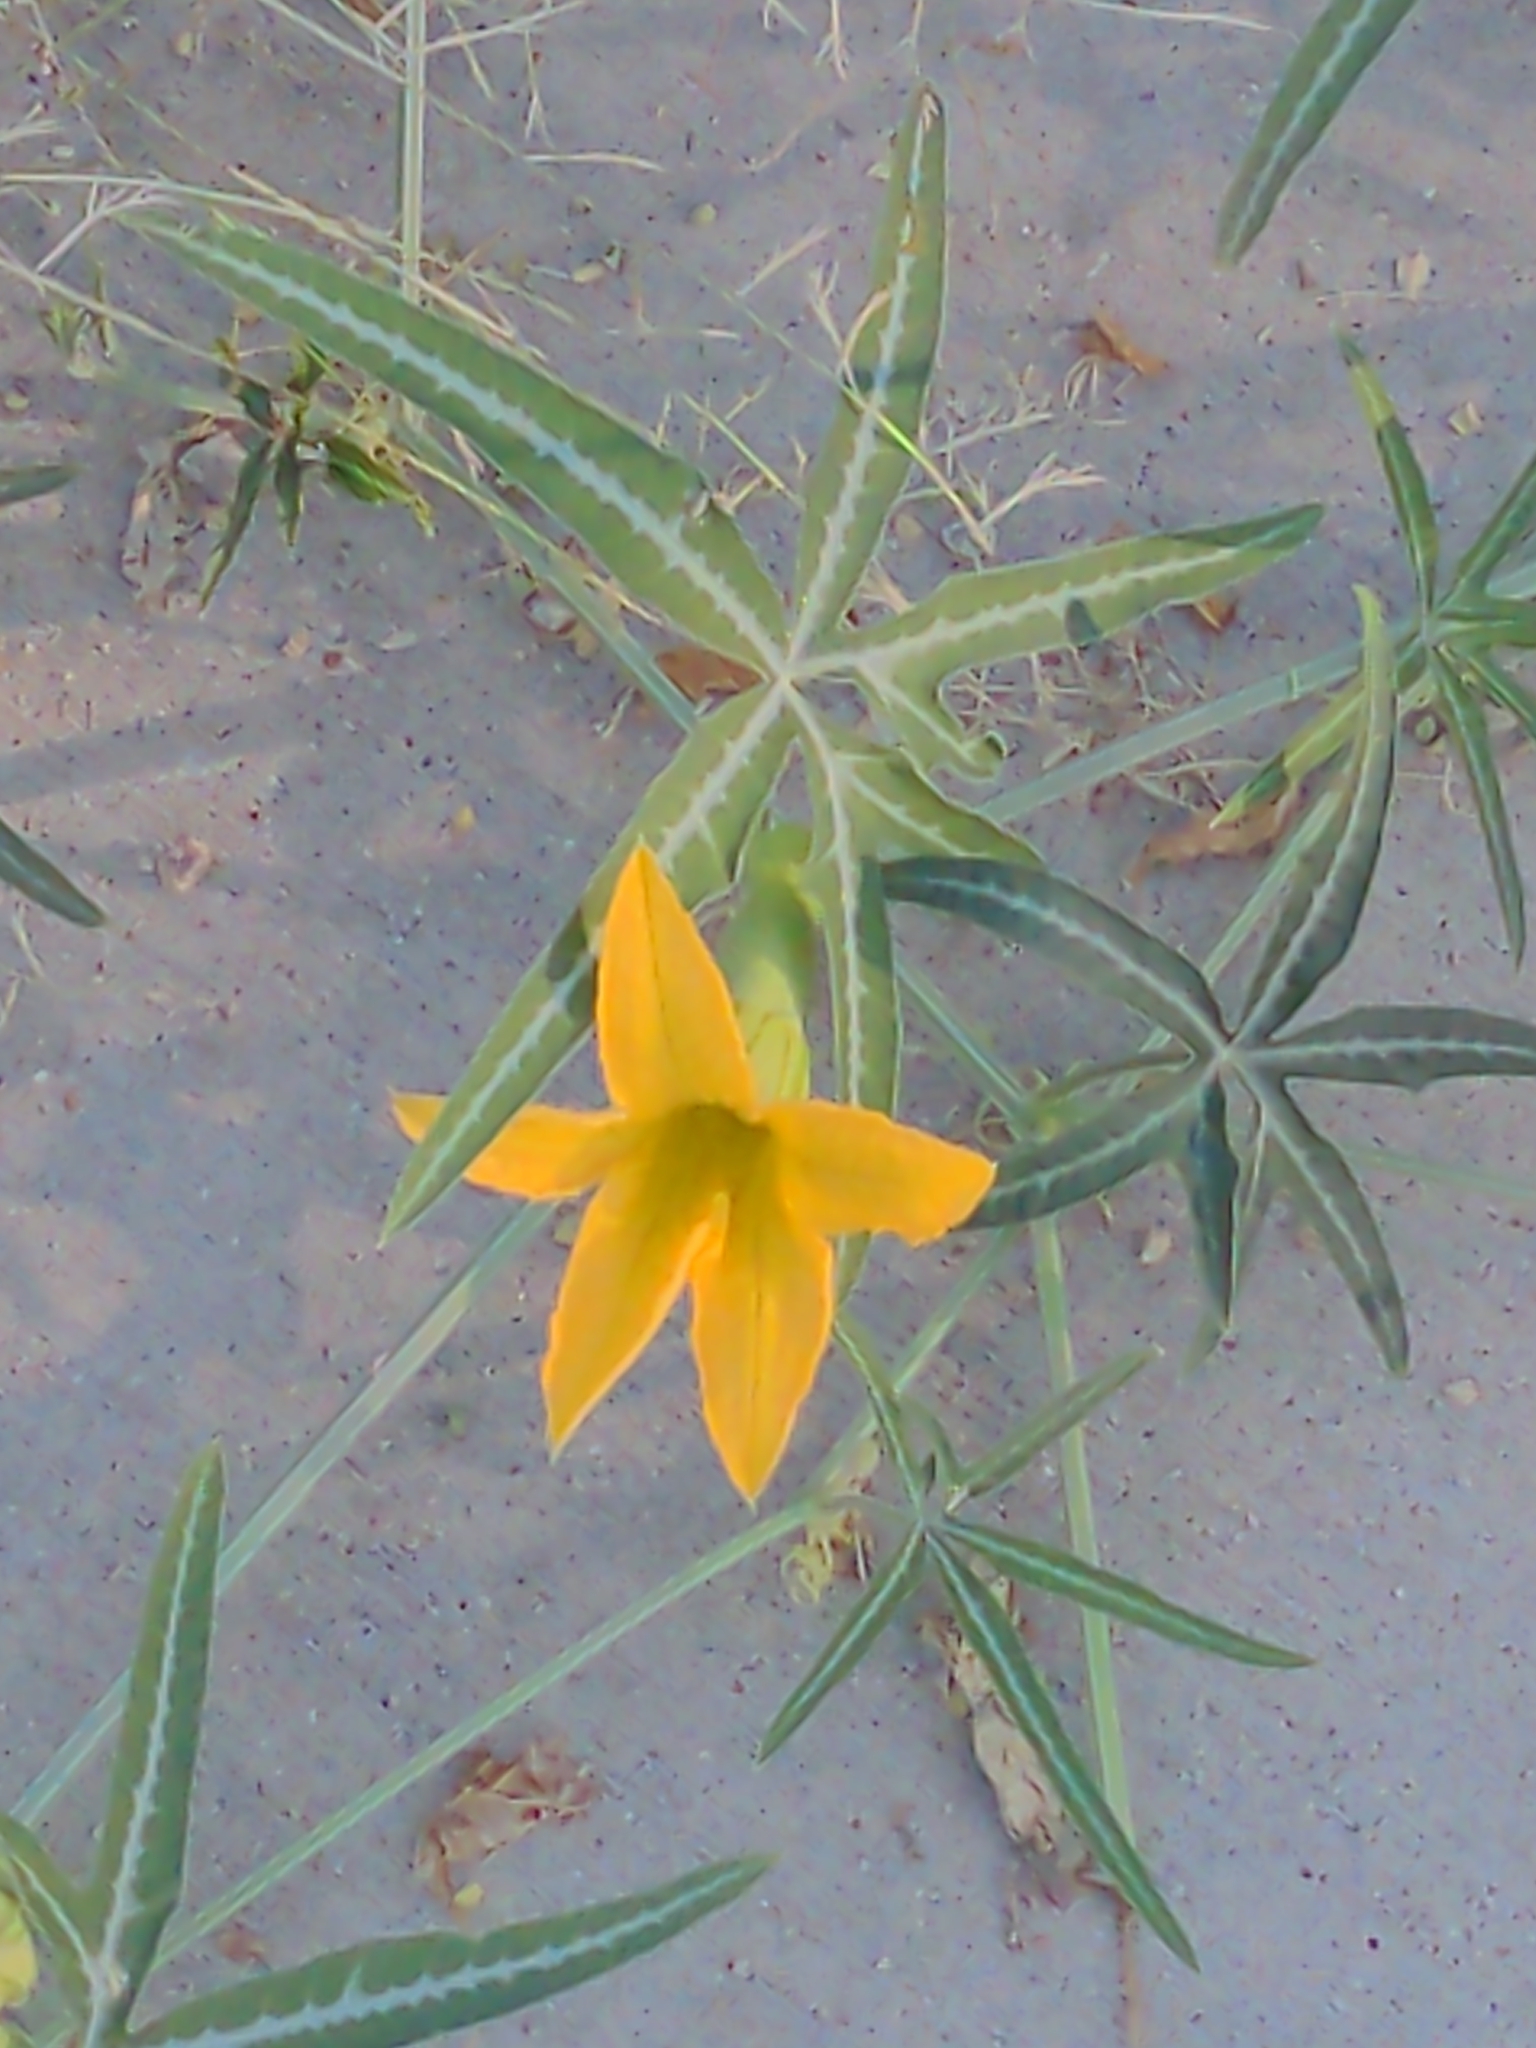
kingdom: Plantae
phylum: Tracheophyta
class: Magnoliopsida
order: Cucurbitales
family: Cucurbitaceae
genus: Cucurbita
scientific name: Cucurbita digitata
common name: Finger-leaf gourd
